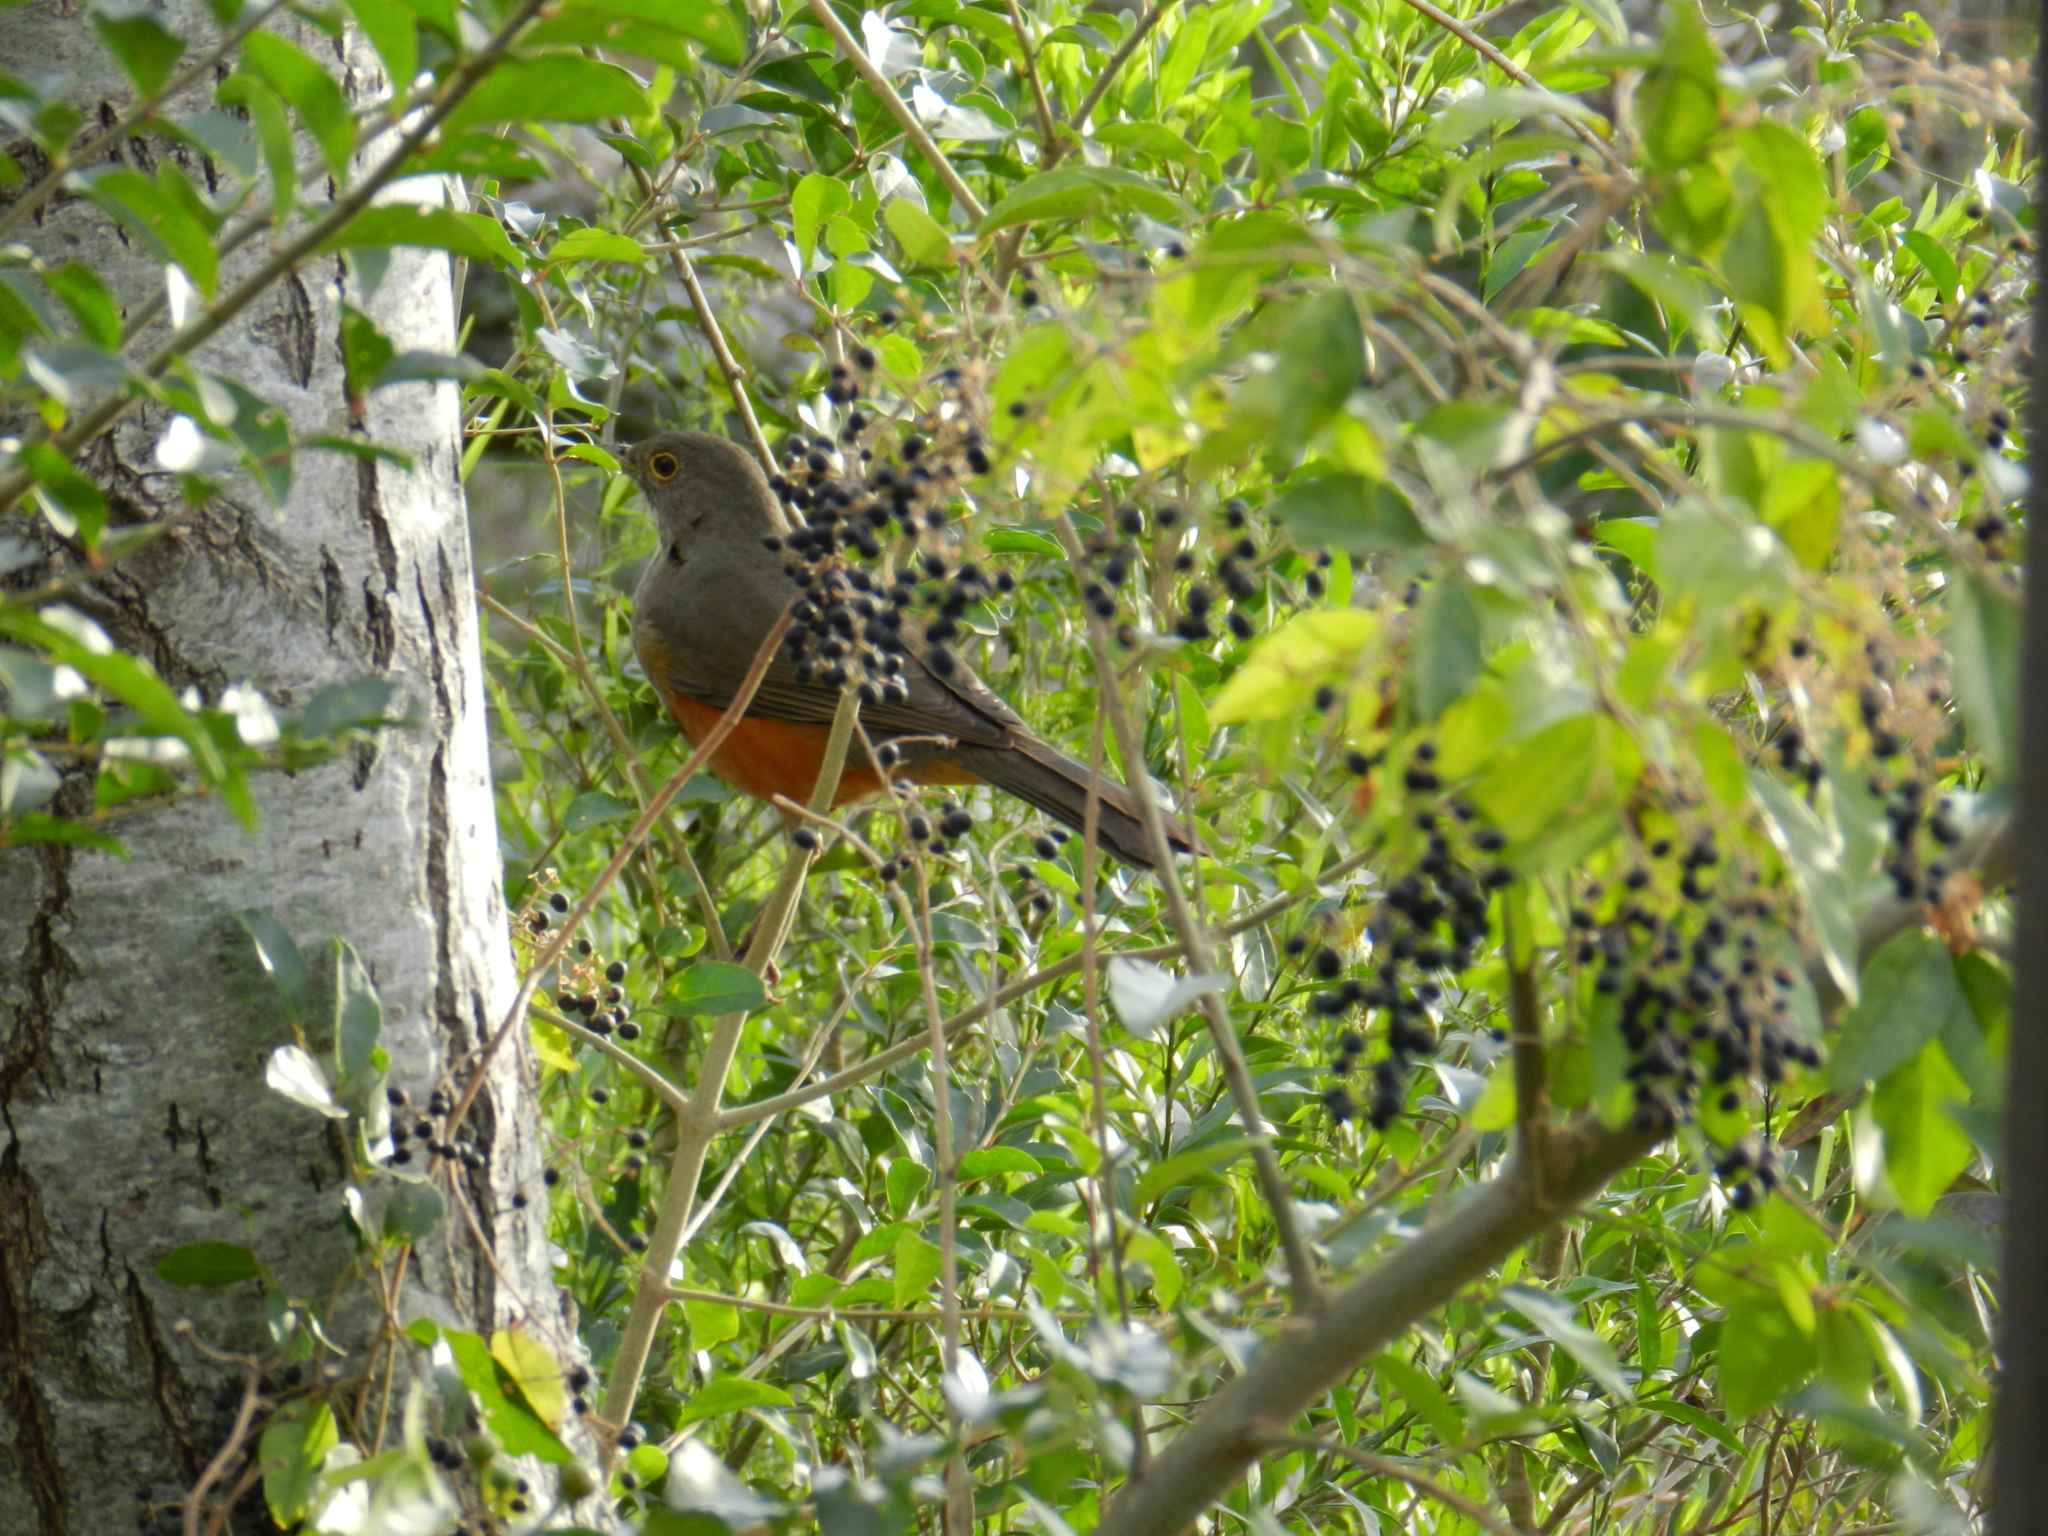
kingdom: Animalia
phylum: Chordata
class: Aves
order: Passeriformes
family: Turdidae
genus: Turdus
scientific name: Turdus rufiventris
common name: Rufous-bellied thrush
